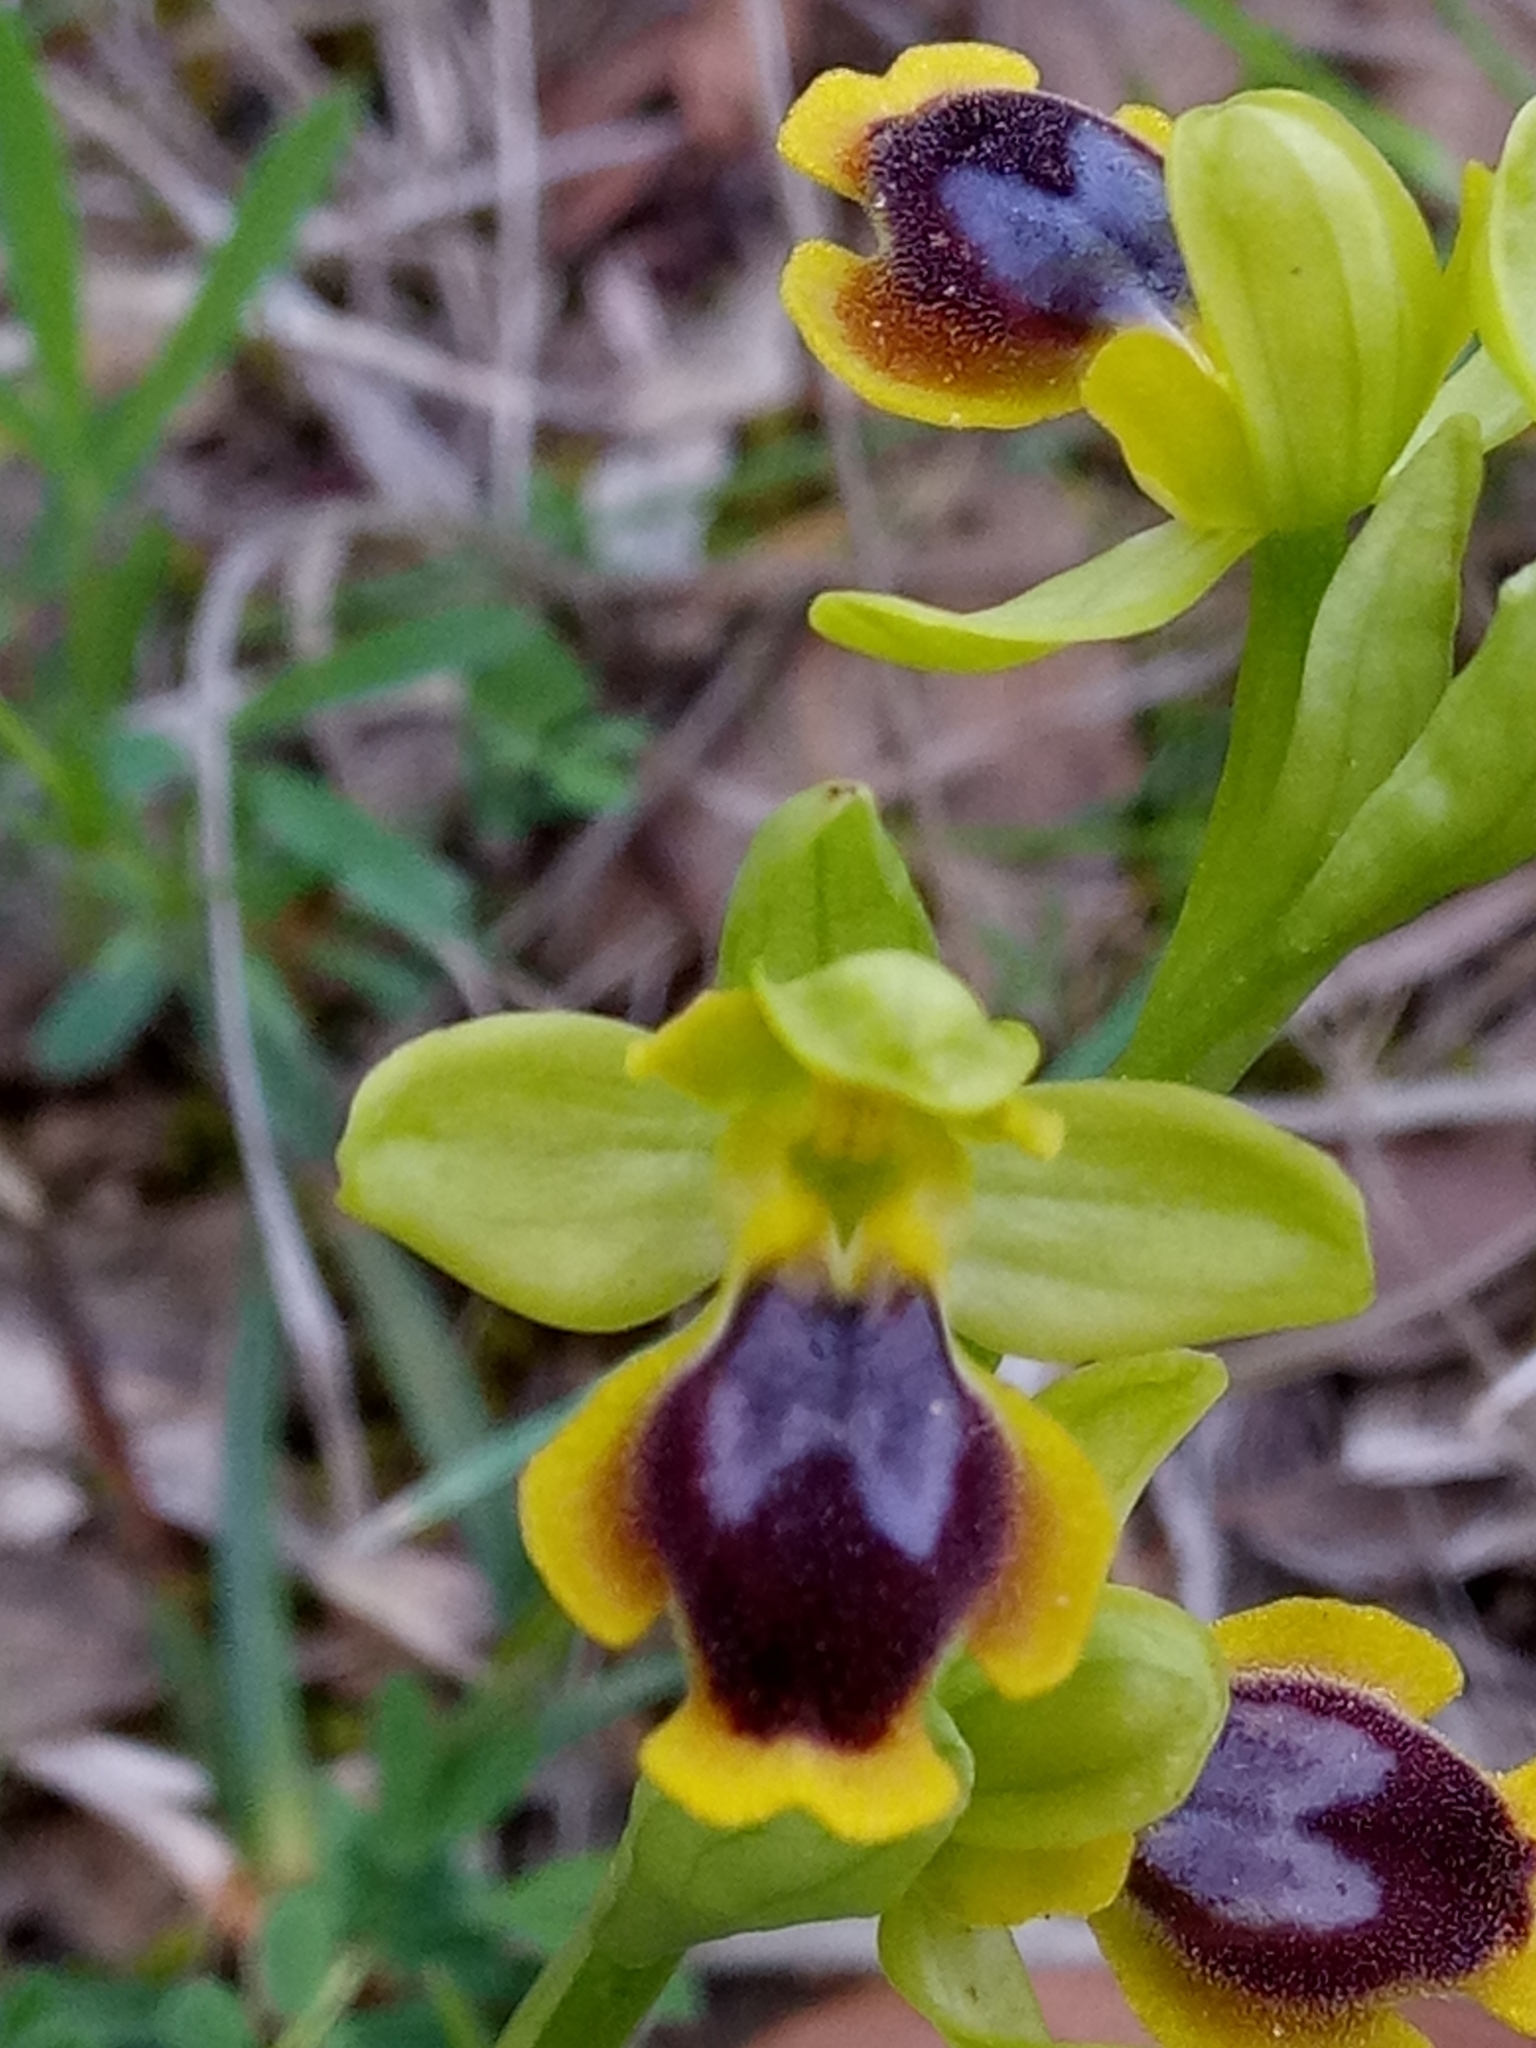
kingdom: Plantae
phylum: Tracheophyta
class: Liliopsida
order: Asparagales
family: Orchidaceae
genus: Ophrys
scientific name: Ophrys battandieri
